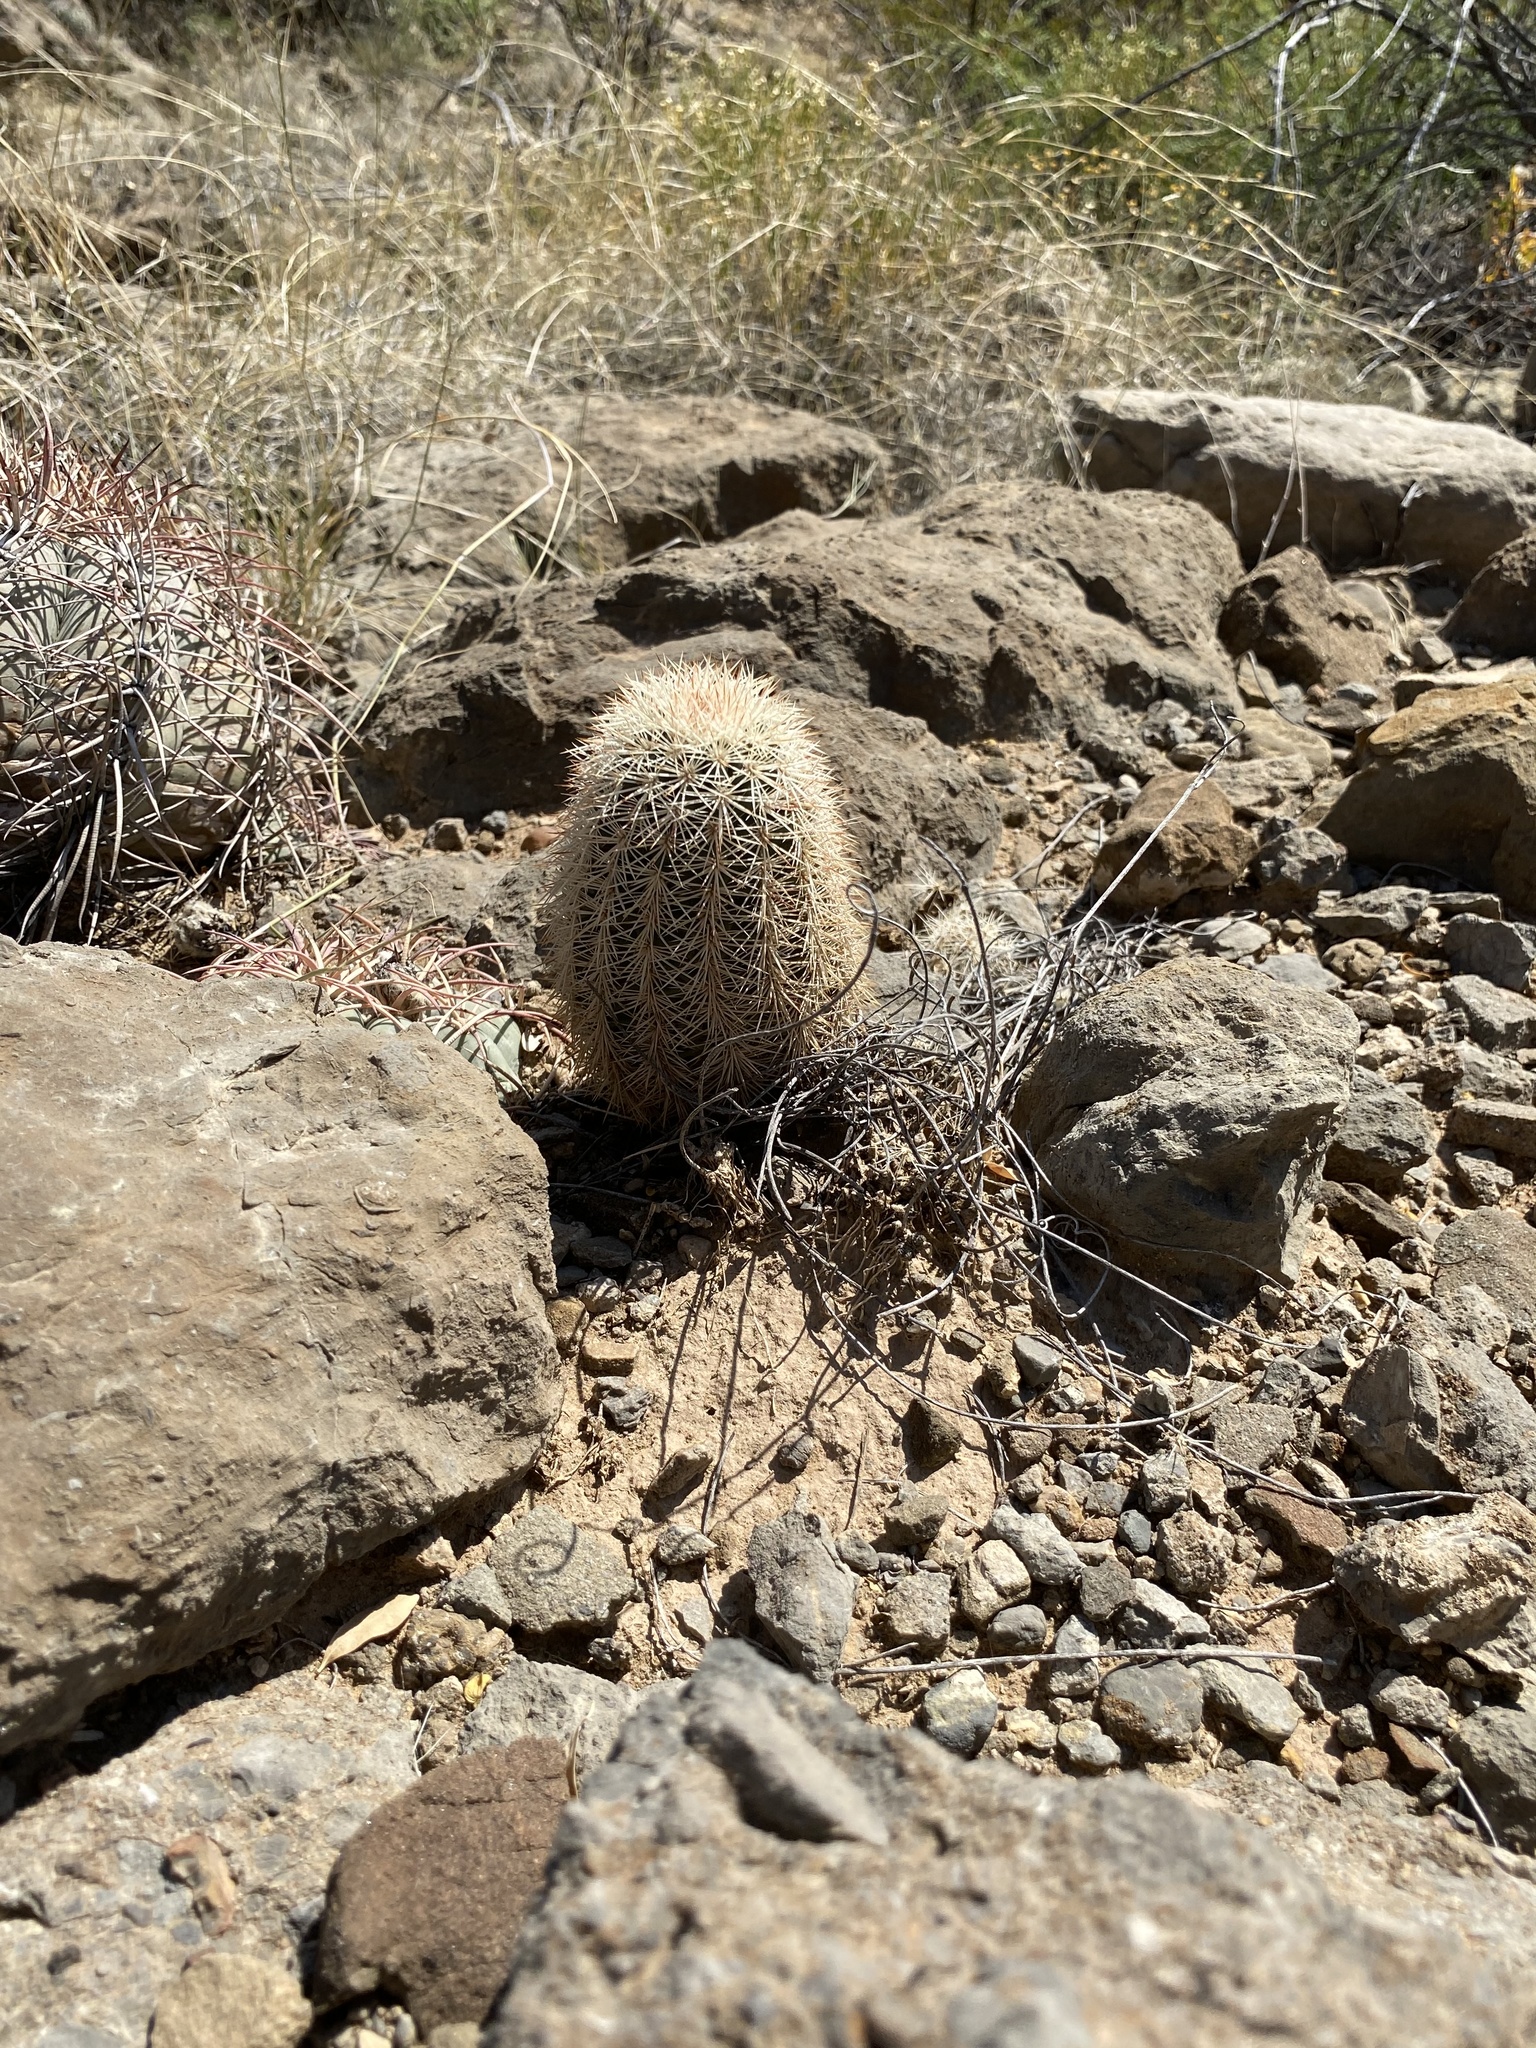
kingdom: Plantae
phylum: Tracheophyta
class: Magnoliopsida
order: Caryophyllales
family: Cactaceae
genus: Echinocereus
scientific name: Echinocereus dasyacanthus
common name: Spiny hedgehog cactus
